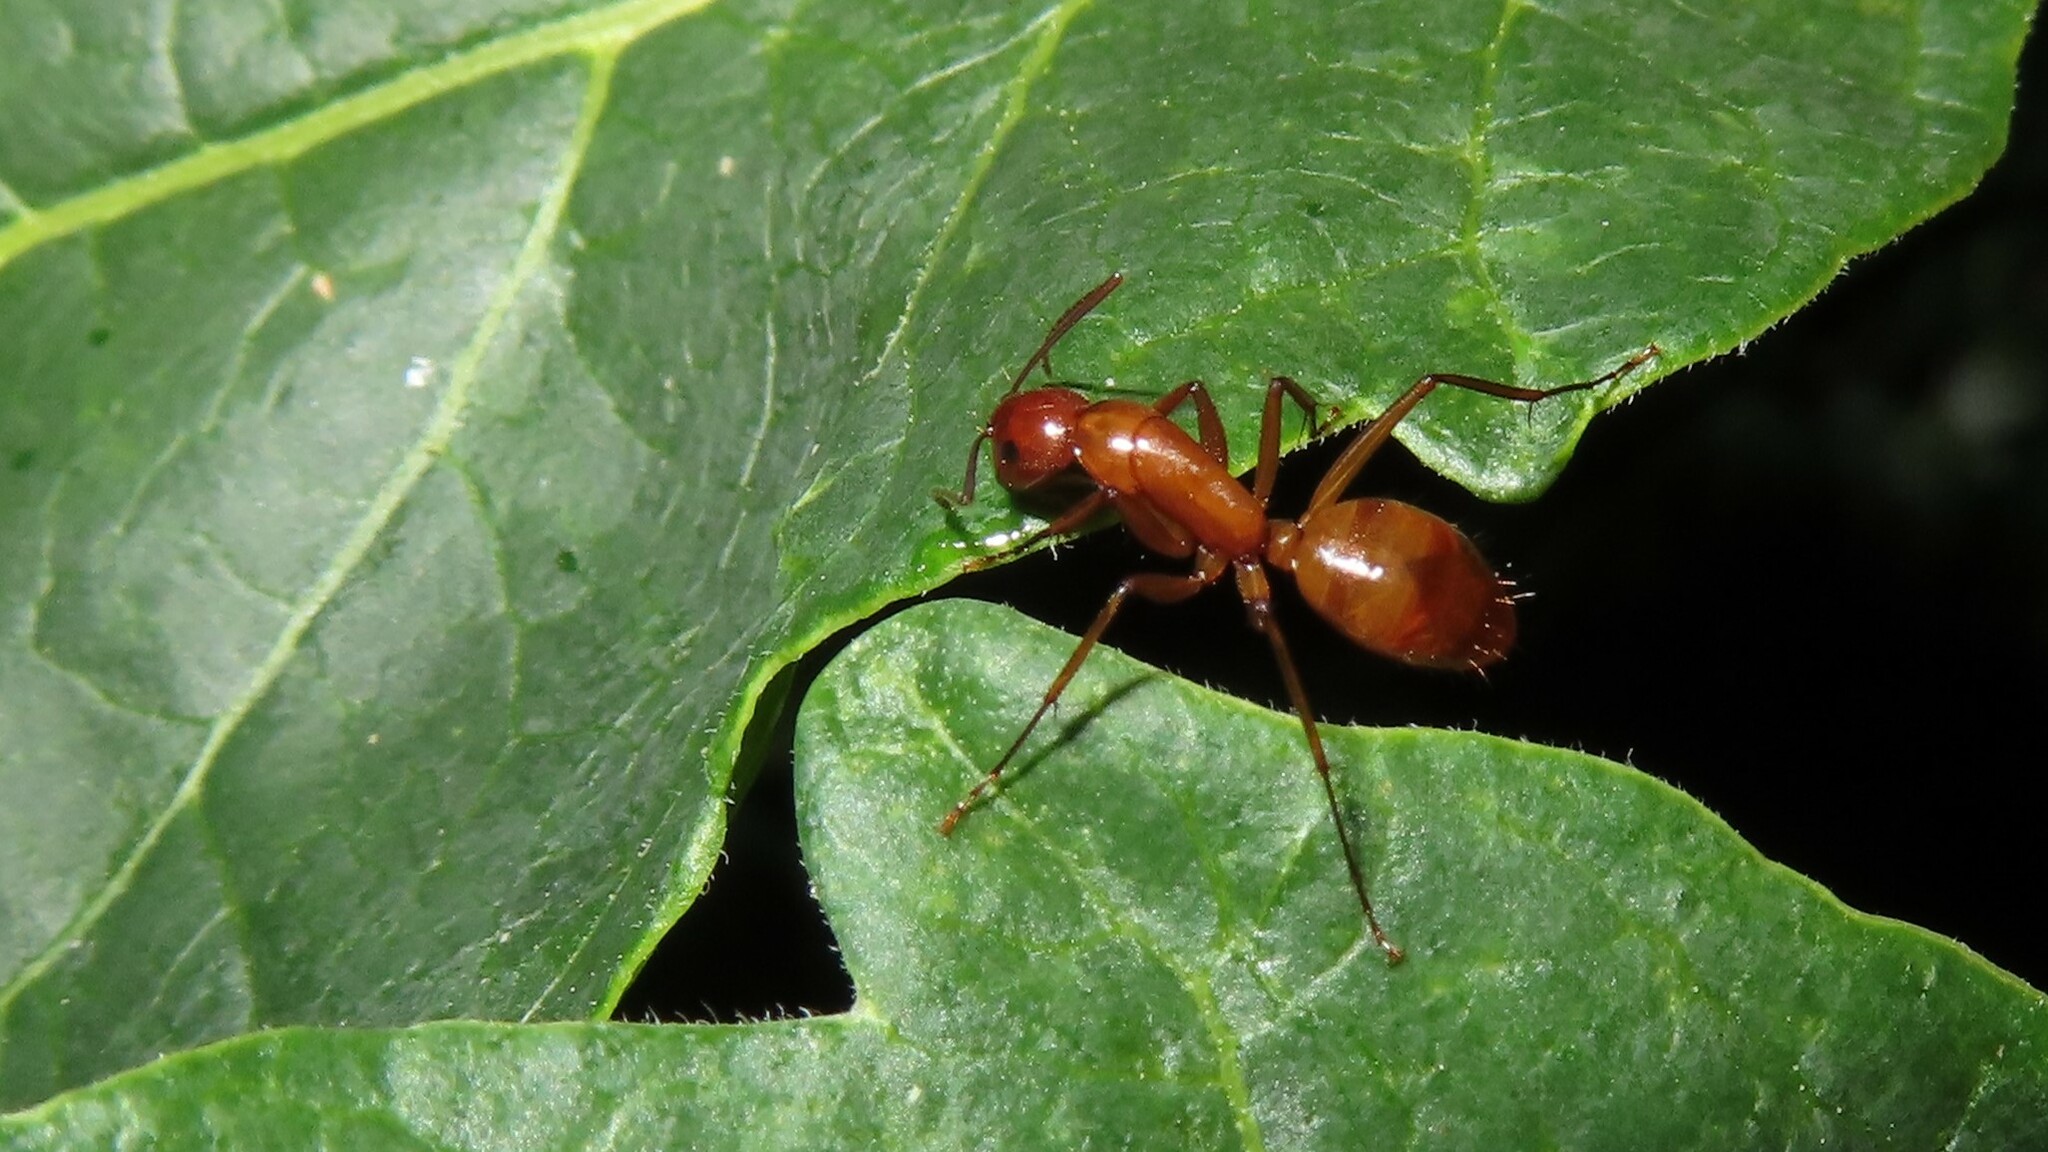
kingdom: Animalia
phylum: Arthropoda
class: Insecta
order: Hymenoptera
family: Formicidae
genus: Camponotus
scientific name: Camponotus castaneus
